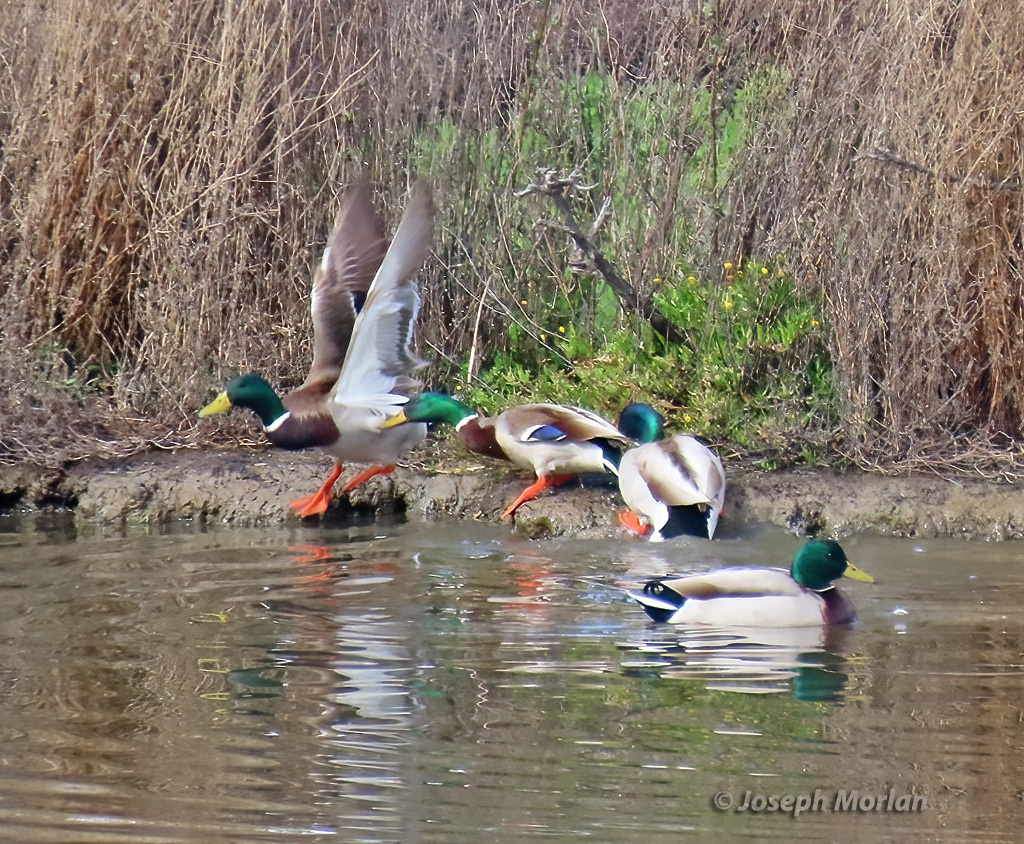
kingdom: Animalia
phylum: Chordata
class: Aves
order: Anseriformes
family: Anatidae
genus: Anas
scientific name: Anas platyrhynchos
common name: Mallard
